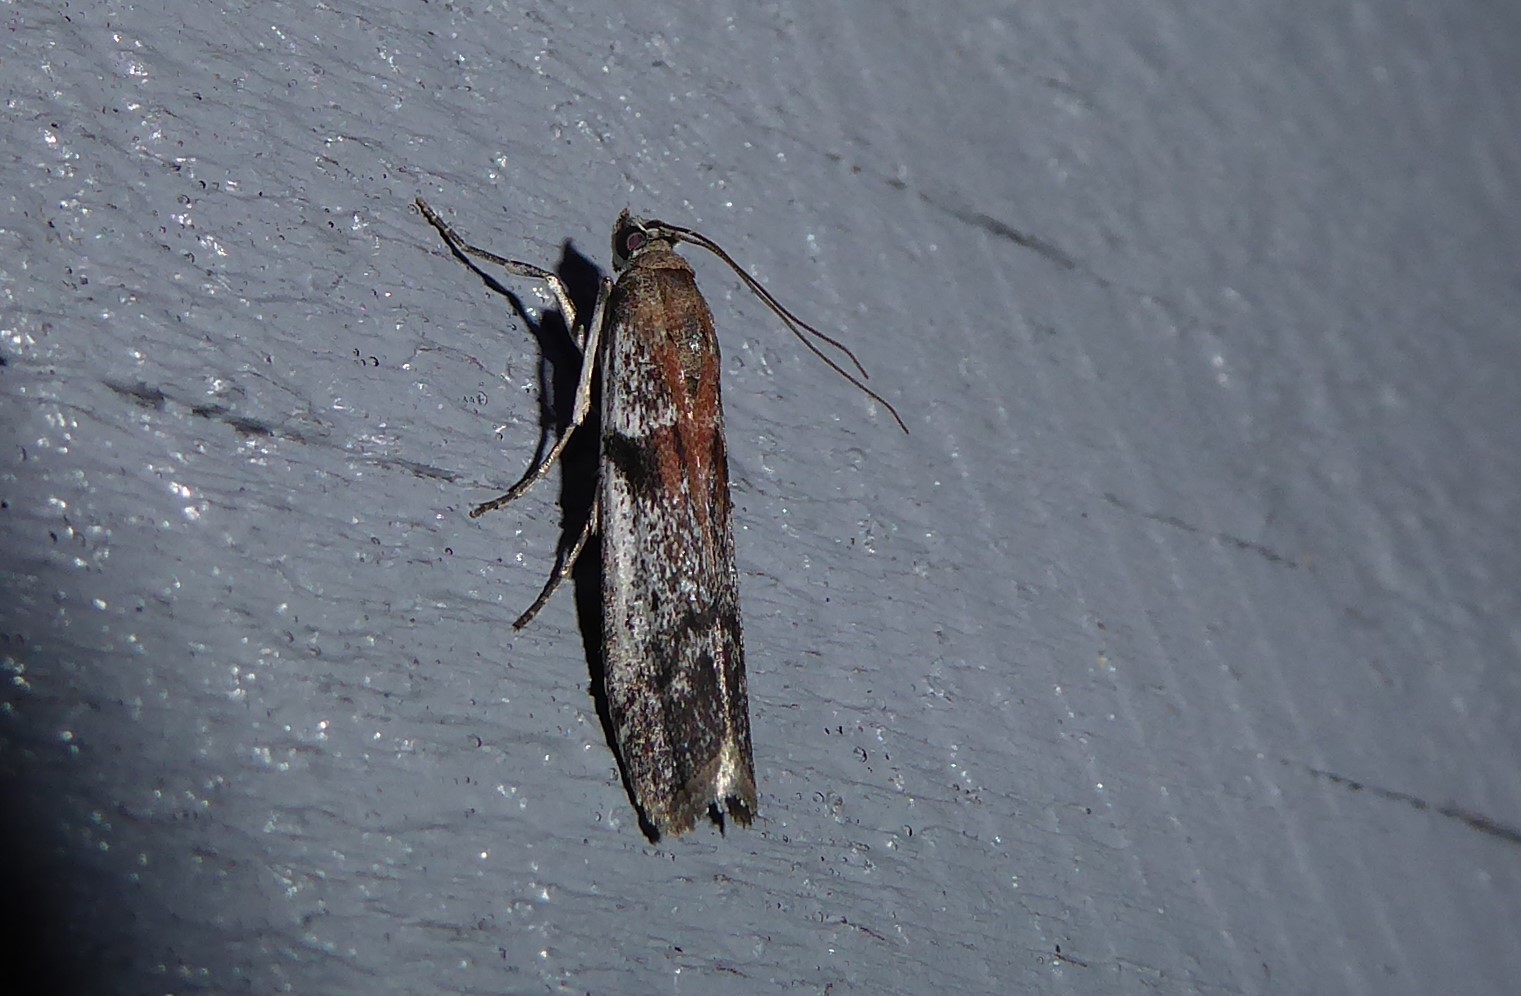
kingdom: Animalia
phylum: Arthropoda
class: Insecta
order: Lepidoptera
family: Pyralidae
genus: Patagoniodes
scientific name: Patagoniodes farinaria
